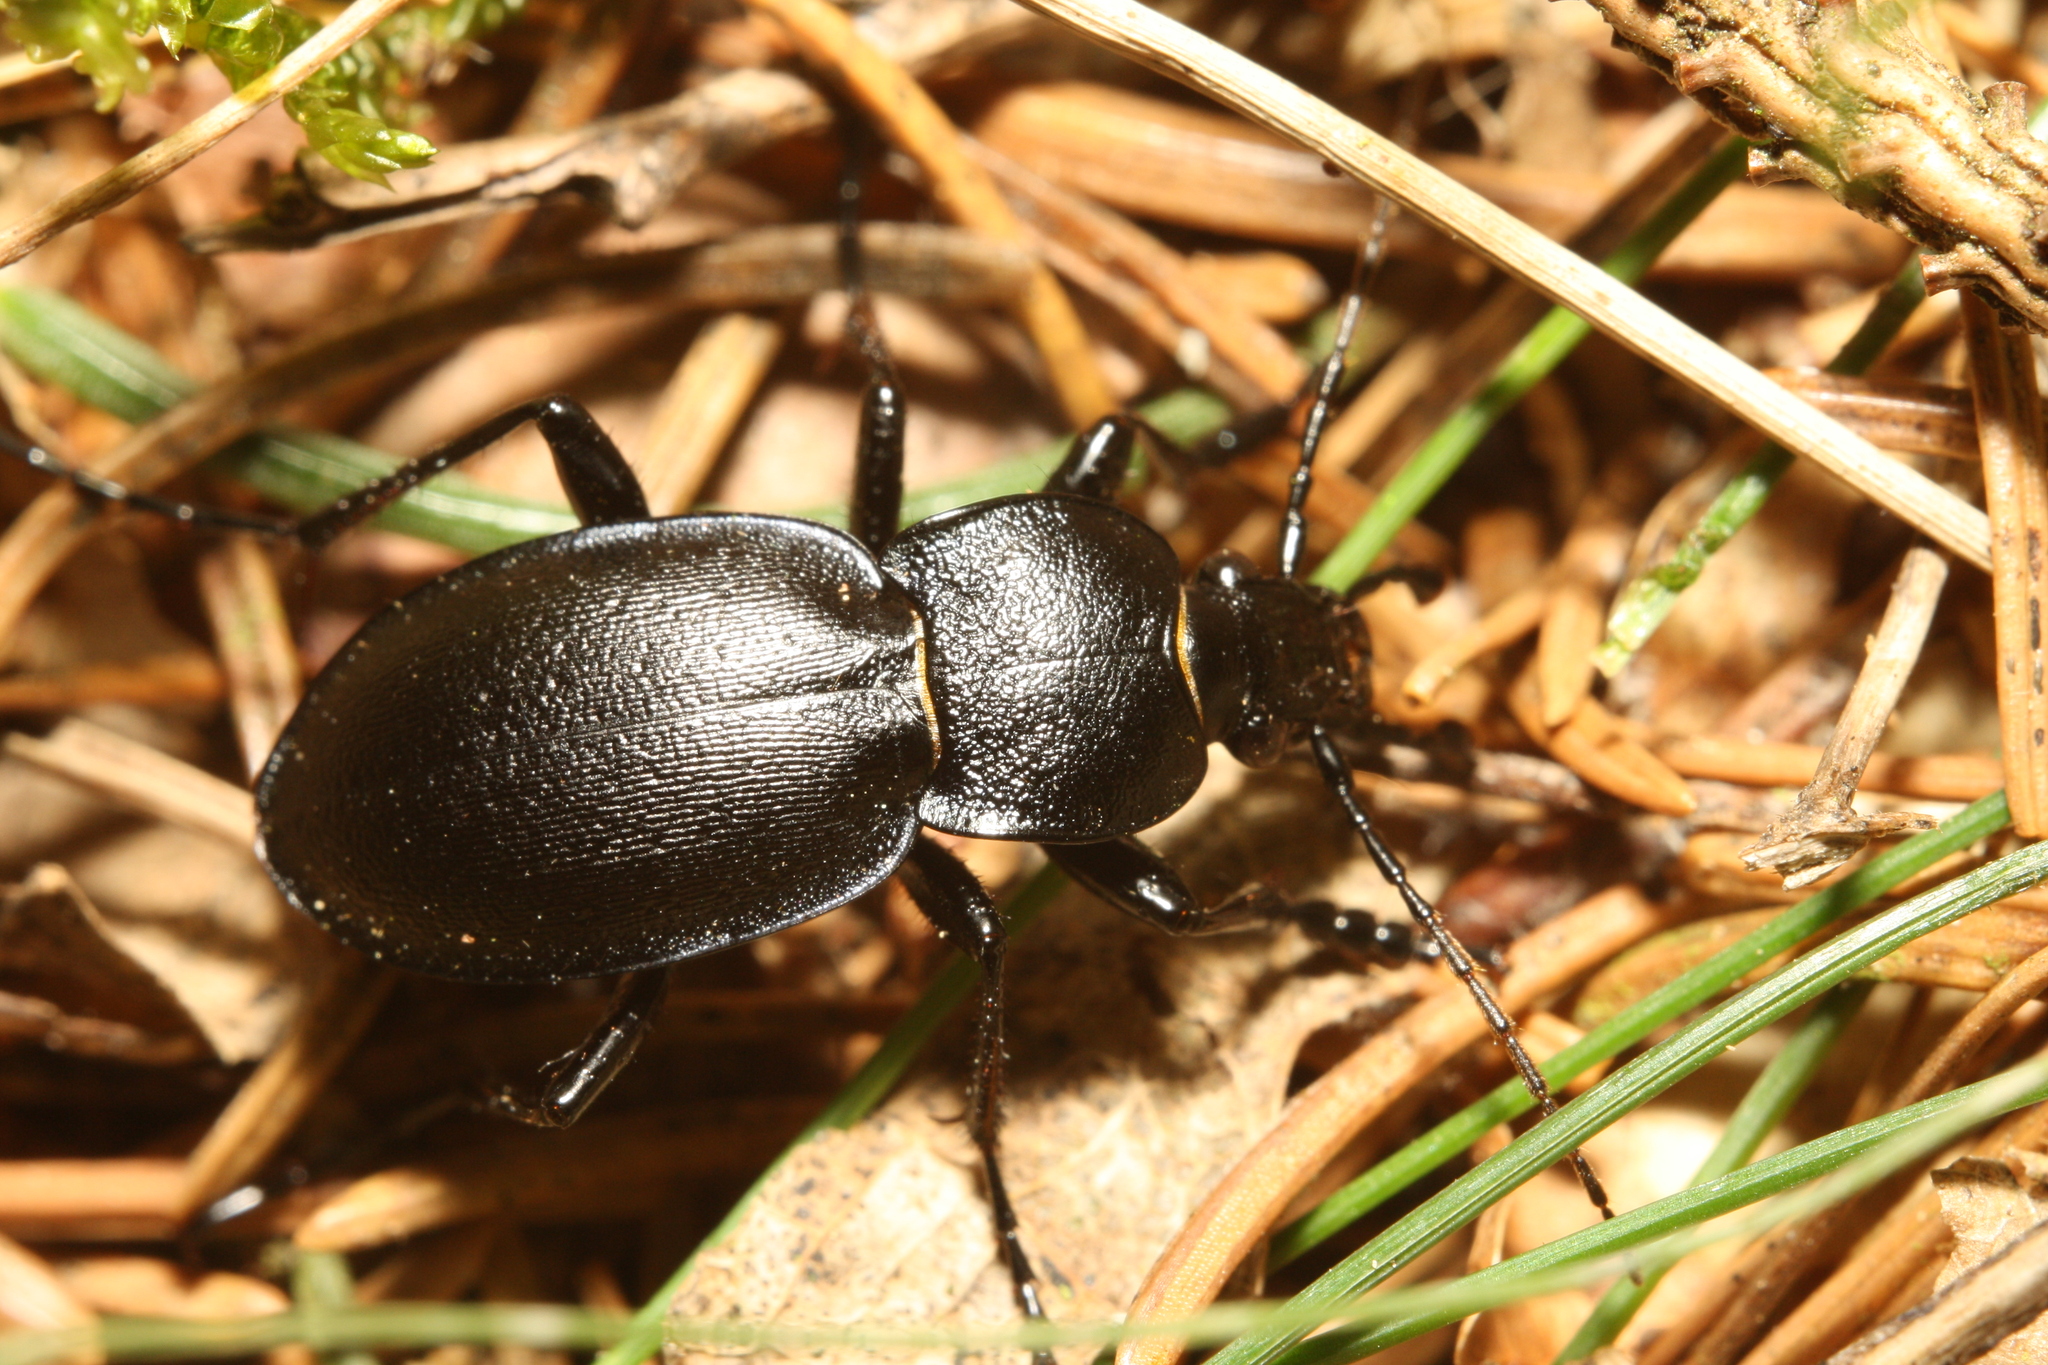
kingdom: Animalia
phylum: Arthropoda
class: Insecta
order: Coleoptera
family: Carabidae
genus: Carabus
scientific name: Carabus convexus
